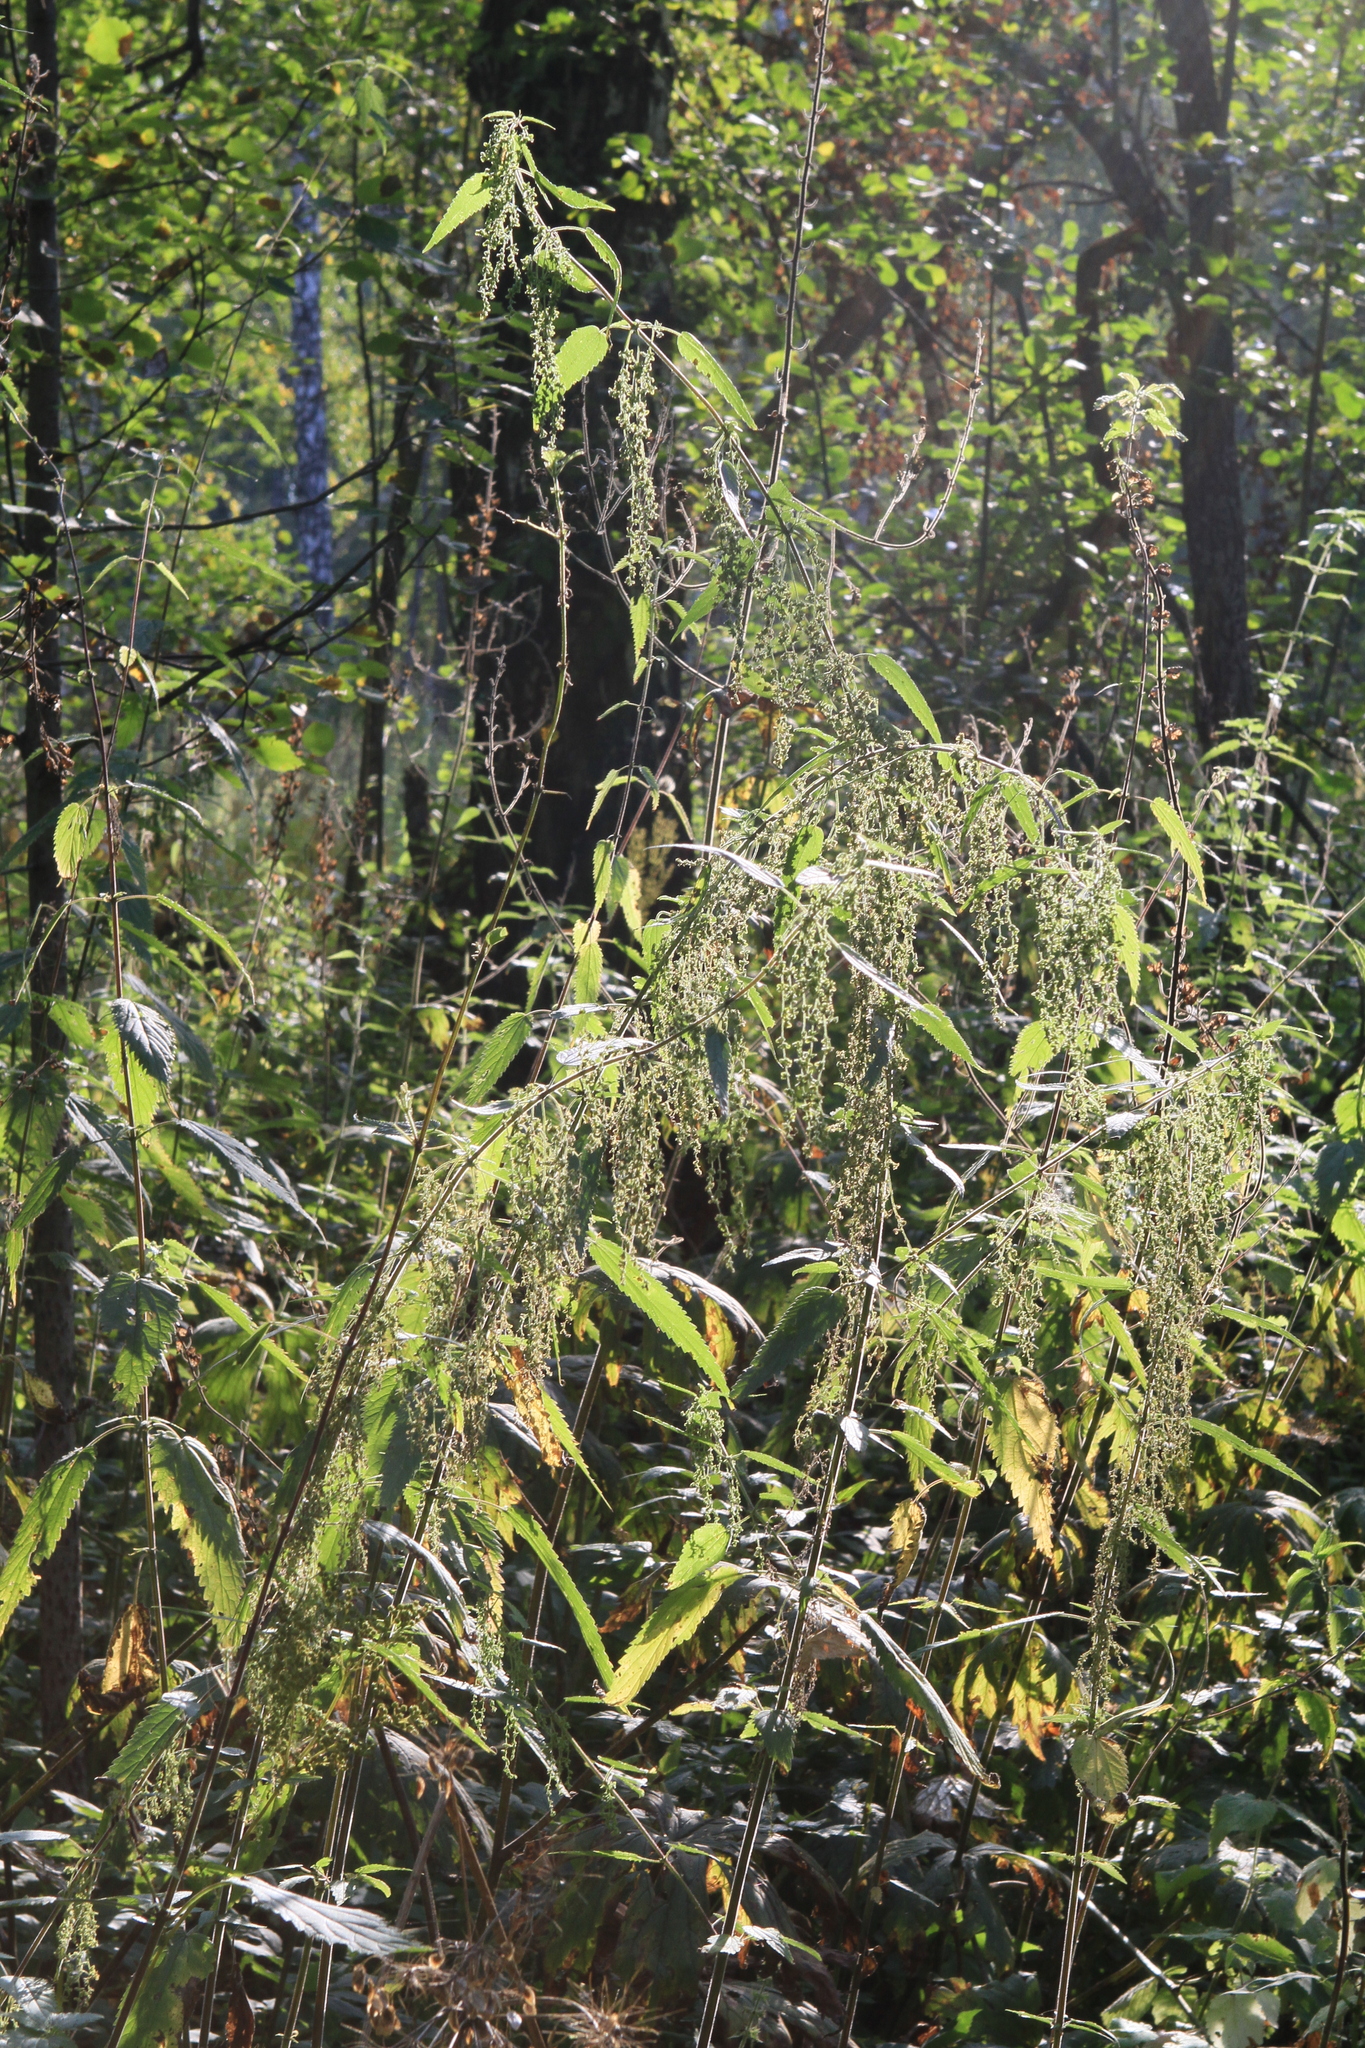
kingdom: Plantae
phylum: Tracheophyta
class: Magnoliopsida
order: Rosales
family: Urticaceae
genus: Urtica
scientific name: Urtica dioica
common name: Common nettle
